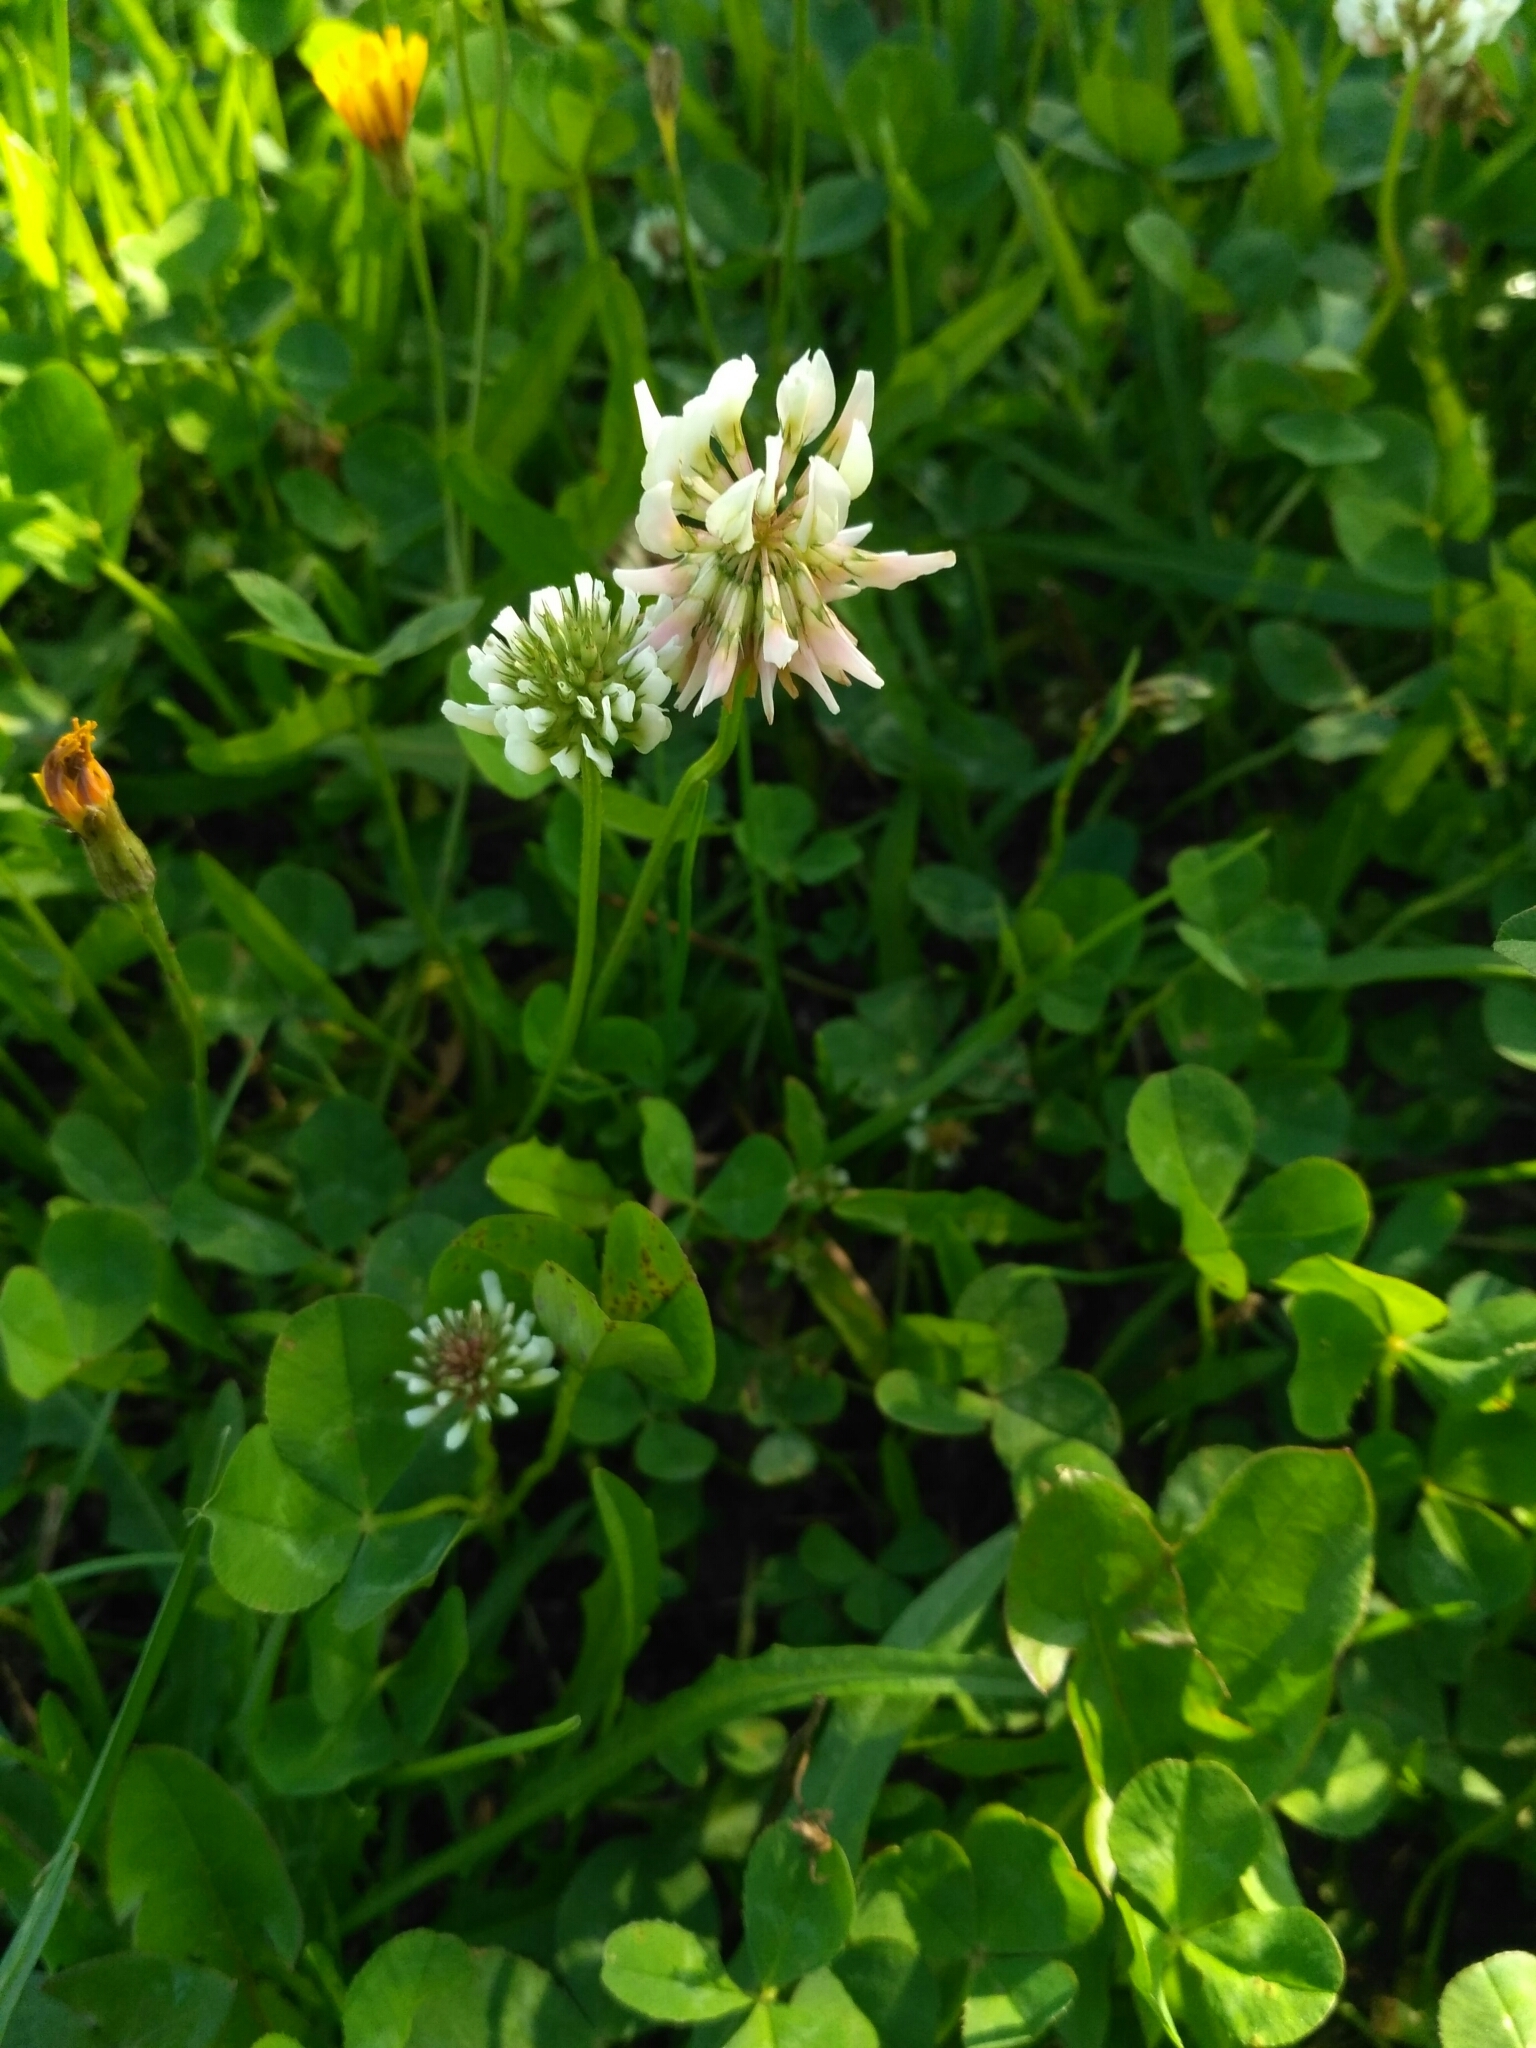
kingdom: Plantae
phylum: Tracheophyta
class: Magnoliopsida
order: Fabales
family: Fabaceae
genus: Trifolium
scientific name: Trifolium repens
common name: White clover
